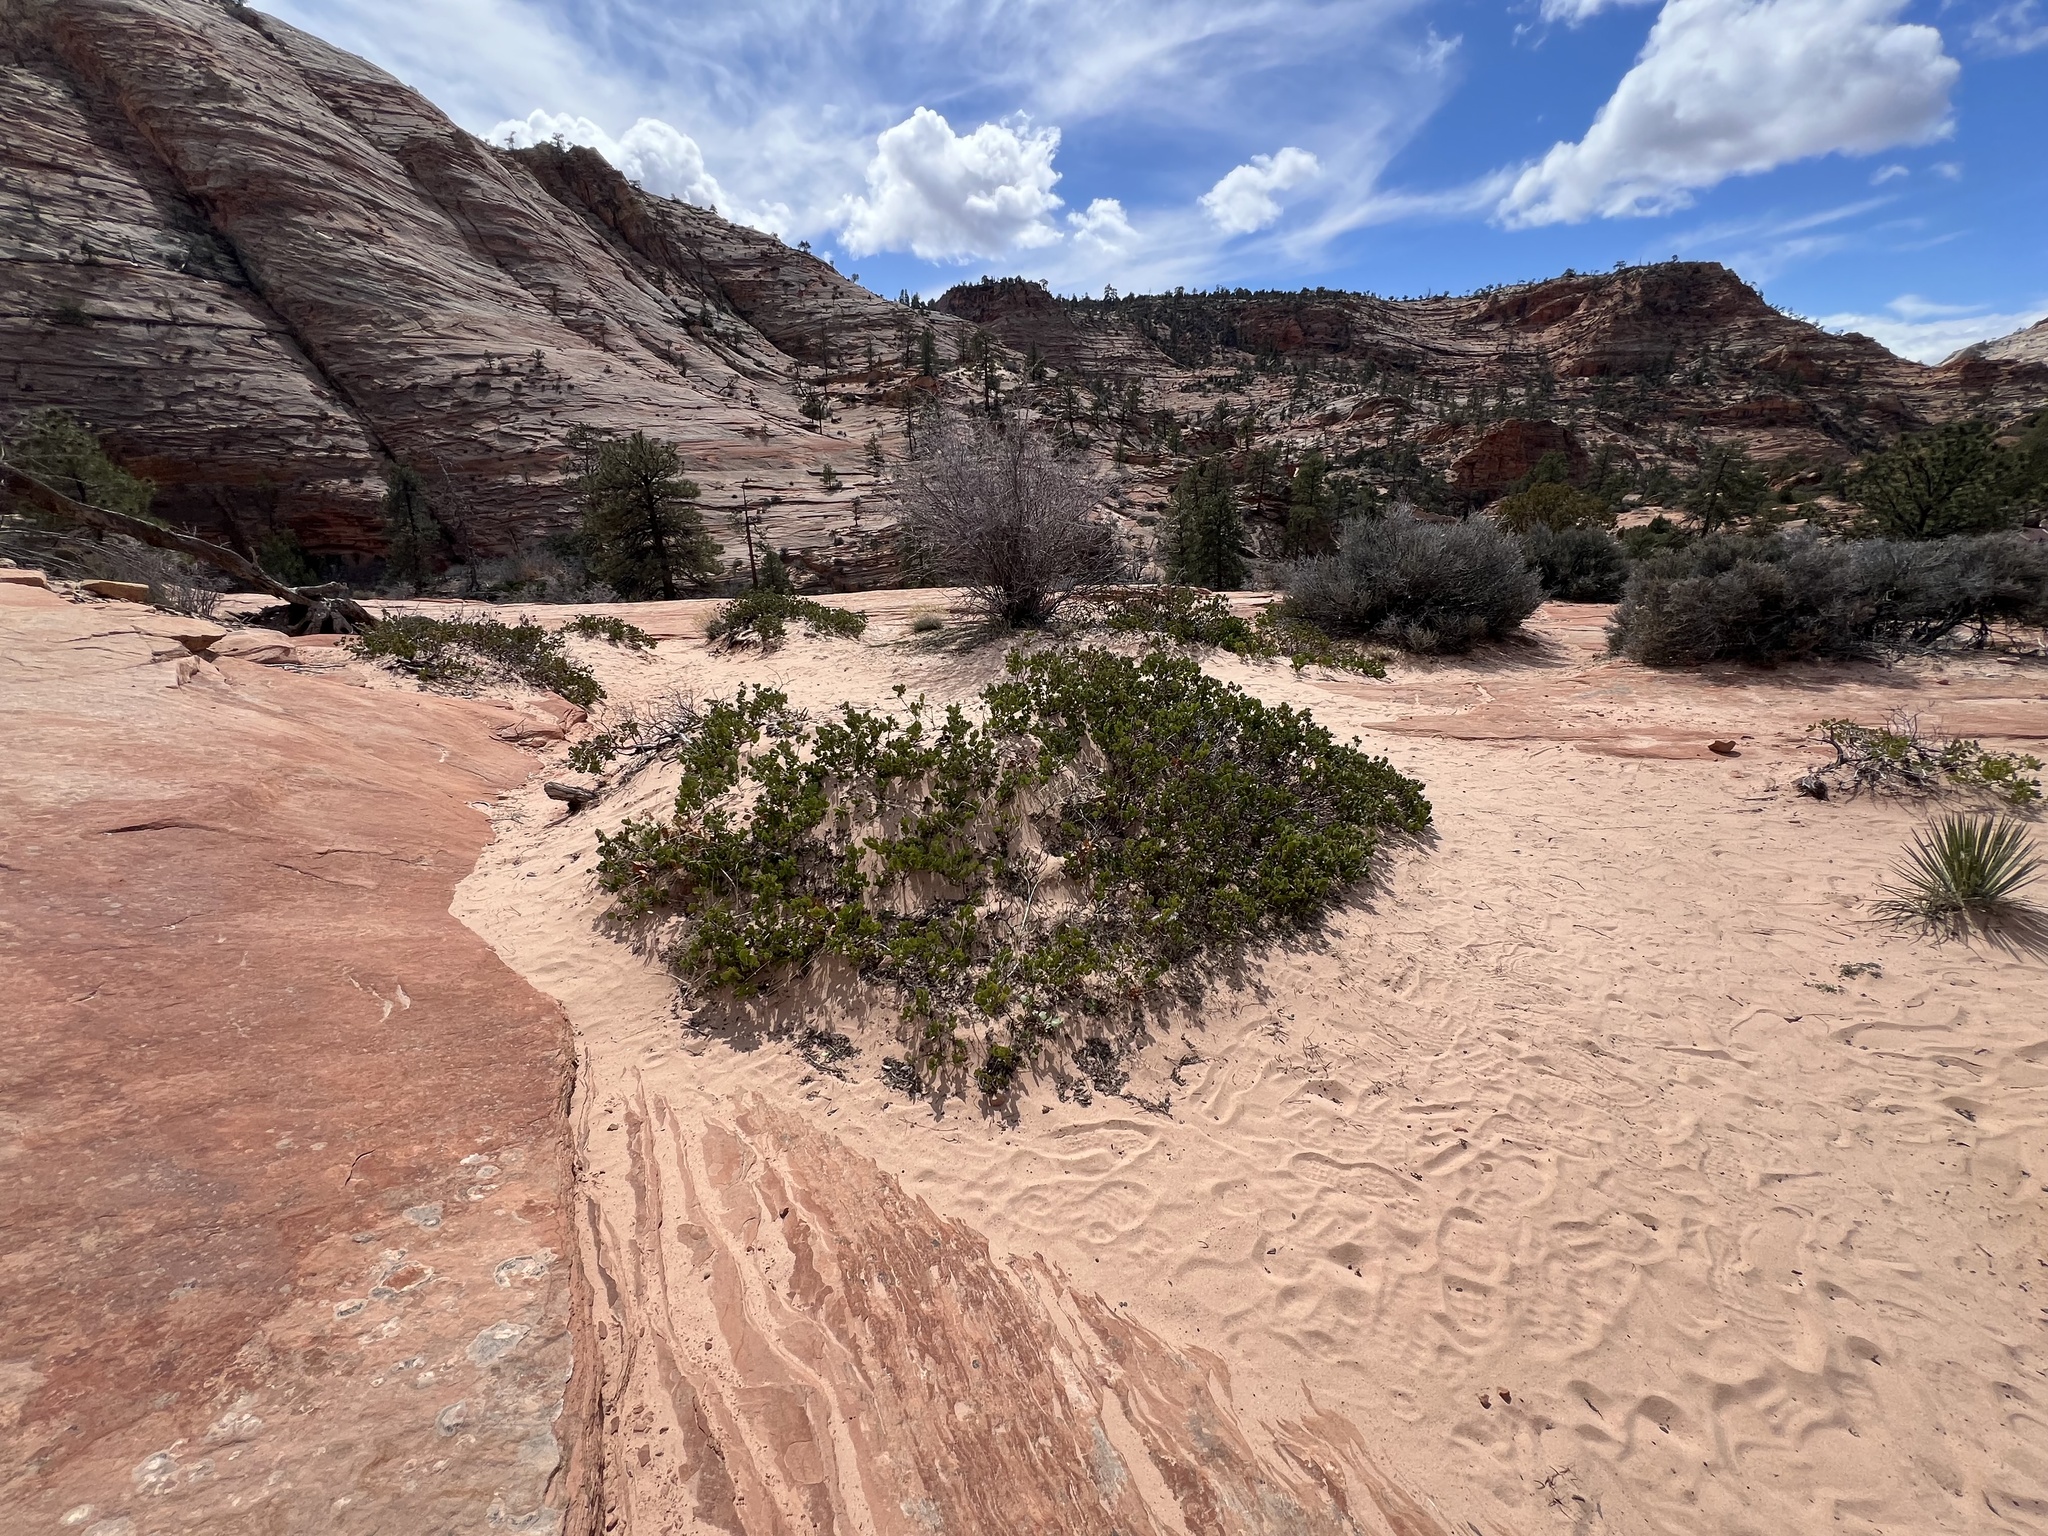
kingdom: Plantae
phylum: Tracheophyta
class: Magnoliopsida
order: Ericales
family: Ericaceae
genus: Arctostaphylos
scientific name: Arctostaphylos patula
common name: Green-leaf manzanita
